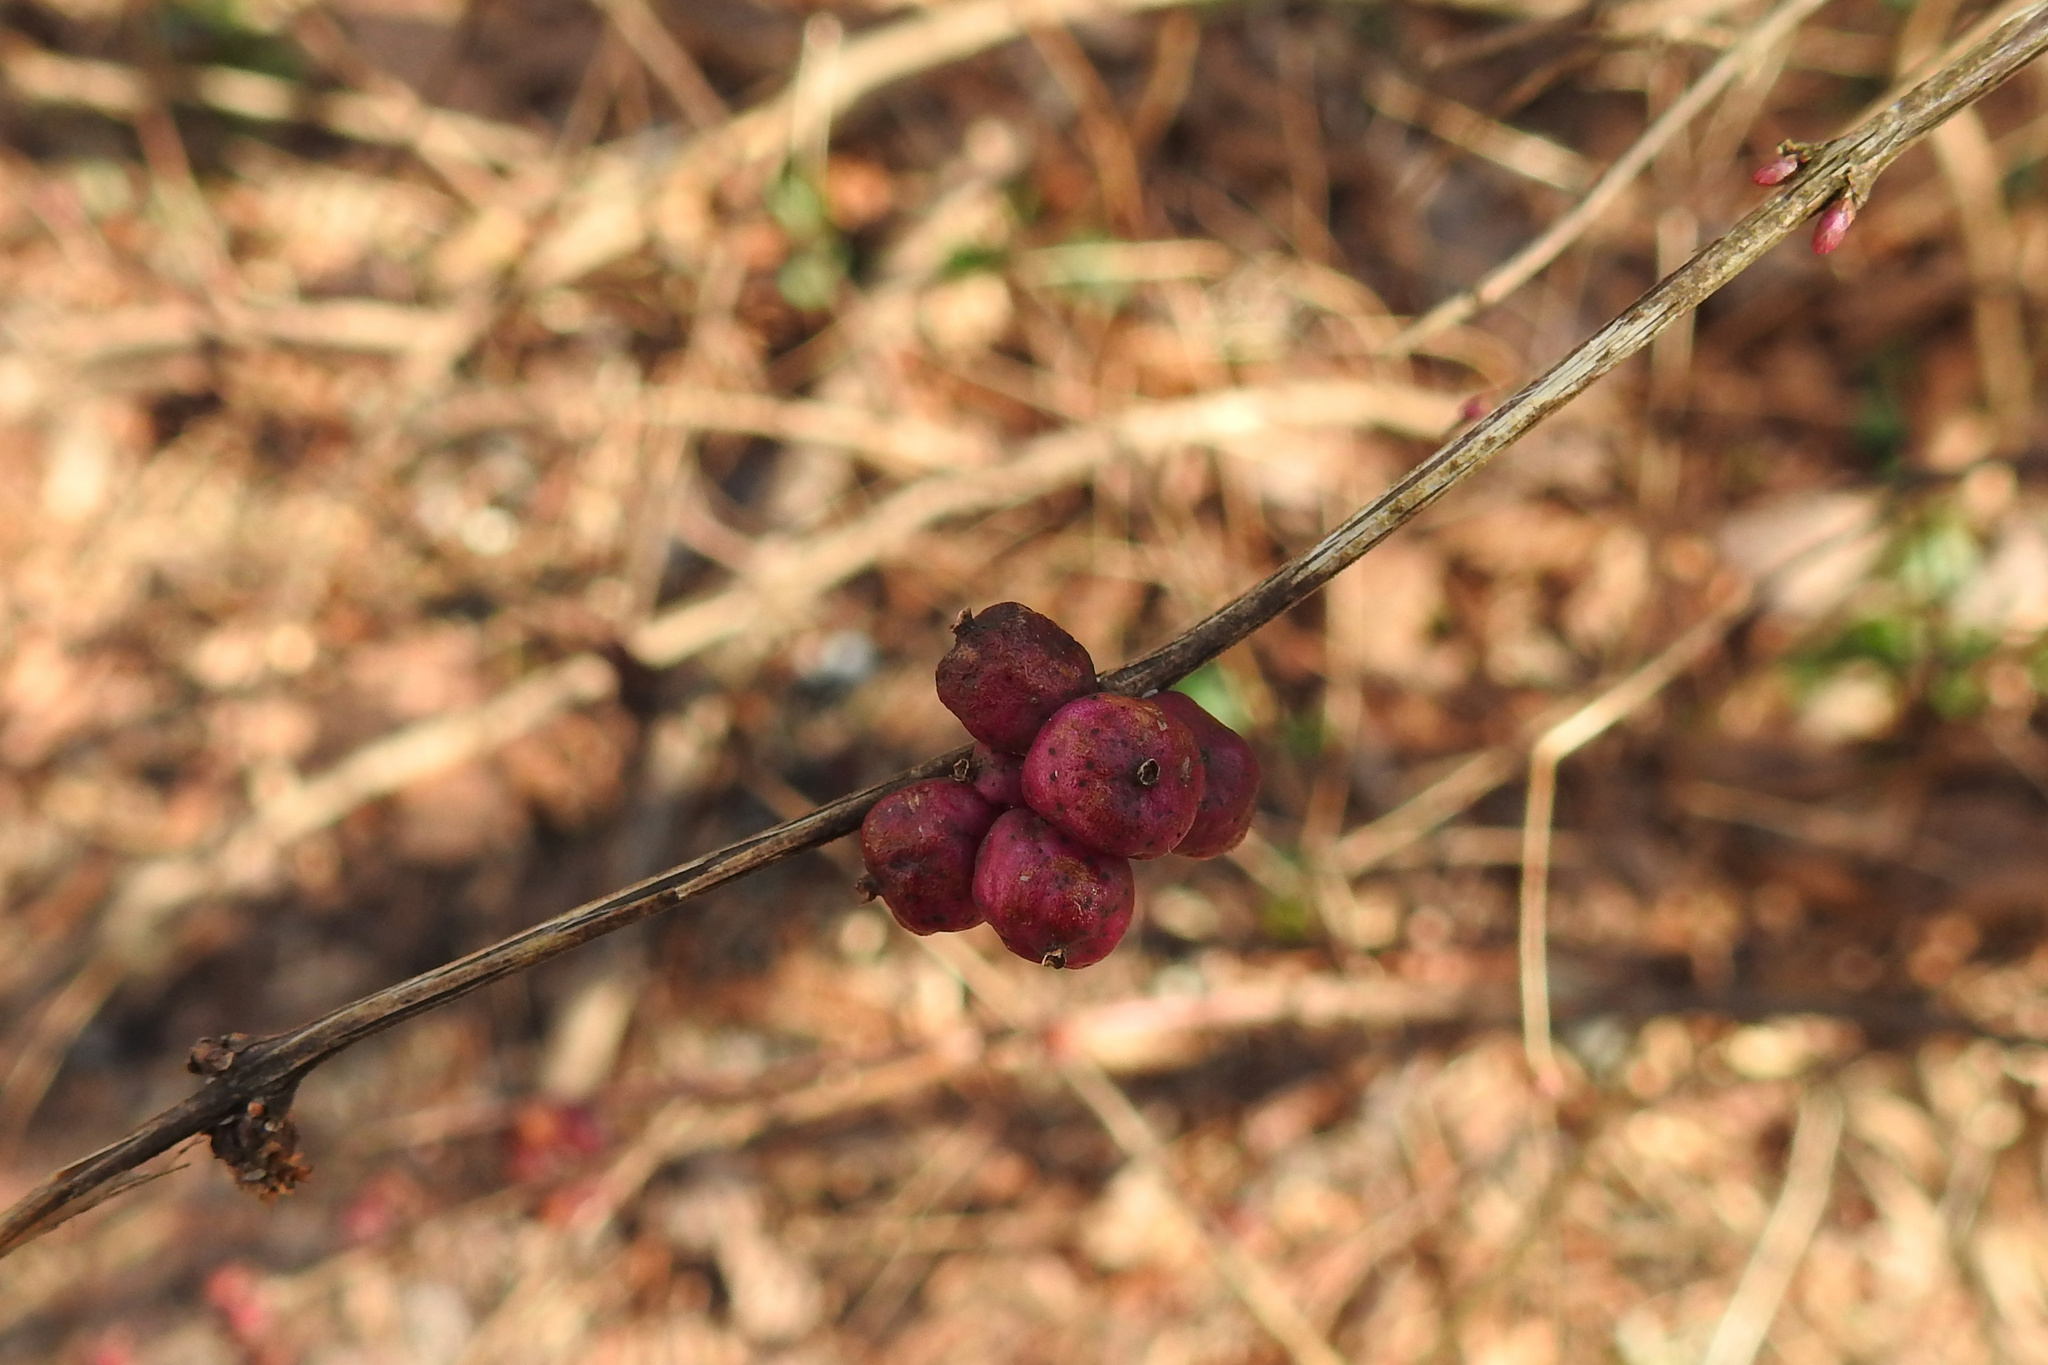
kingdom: Plantae
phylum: Tracheophyta
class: Magnoliopsida
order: Dipsacales
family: Caprifoliaceae
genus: Symphoricarpos
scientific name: Symphoricarpos orbiculatus
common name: Coralberry
